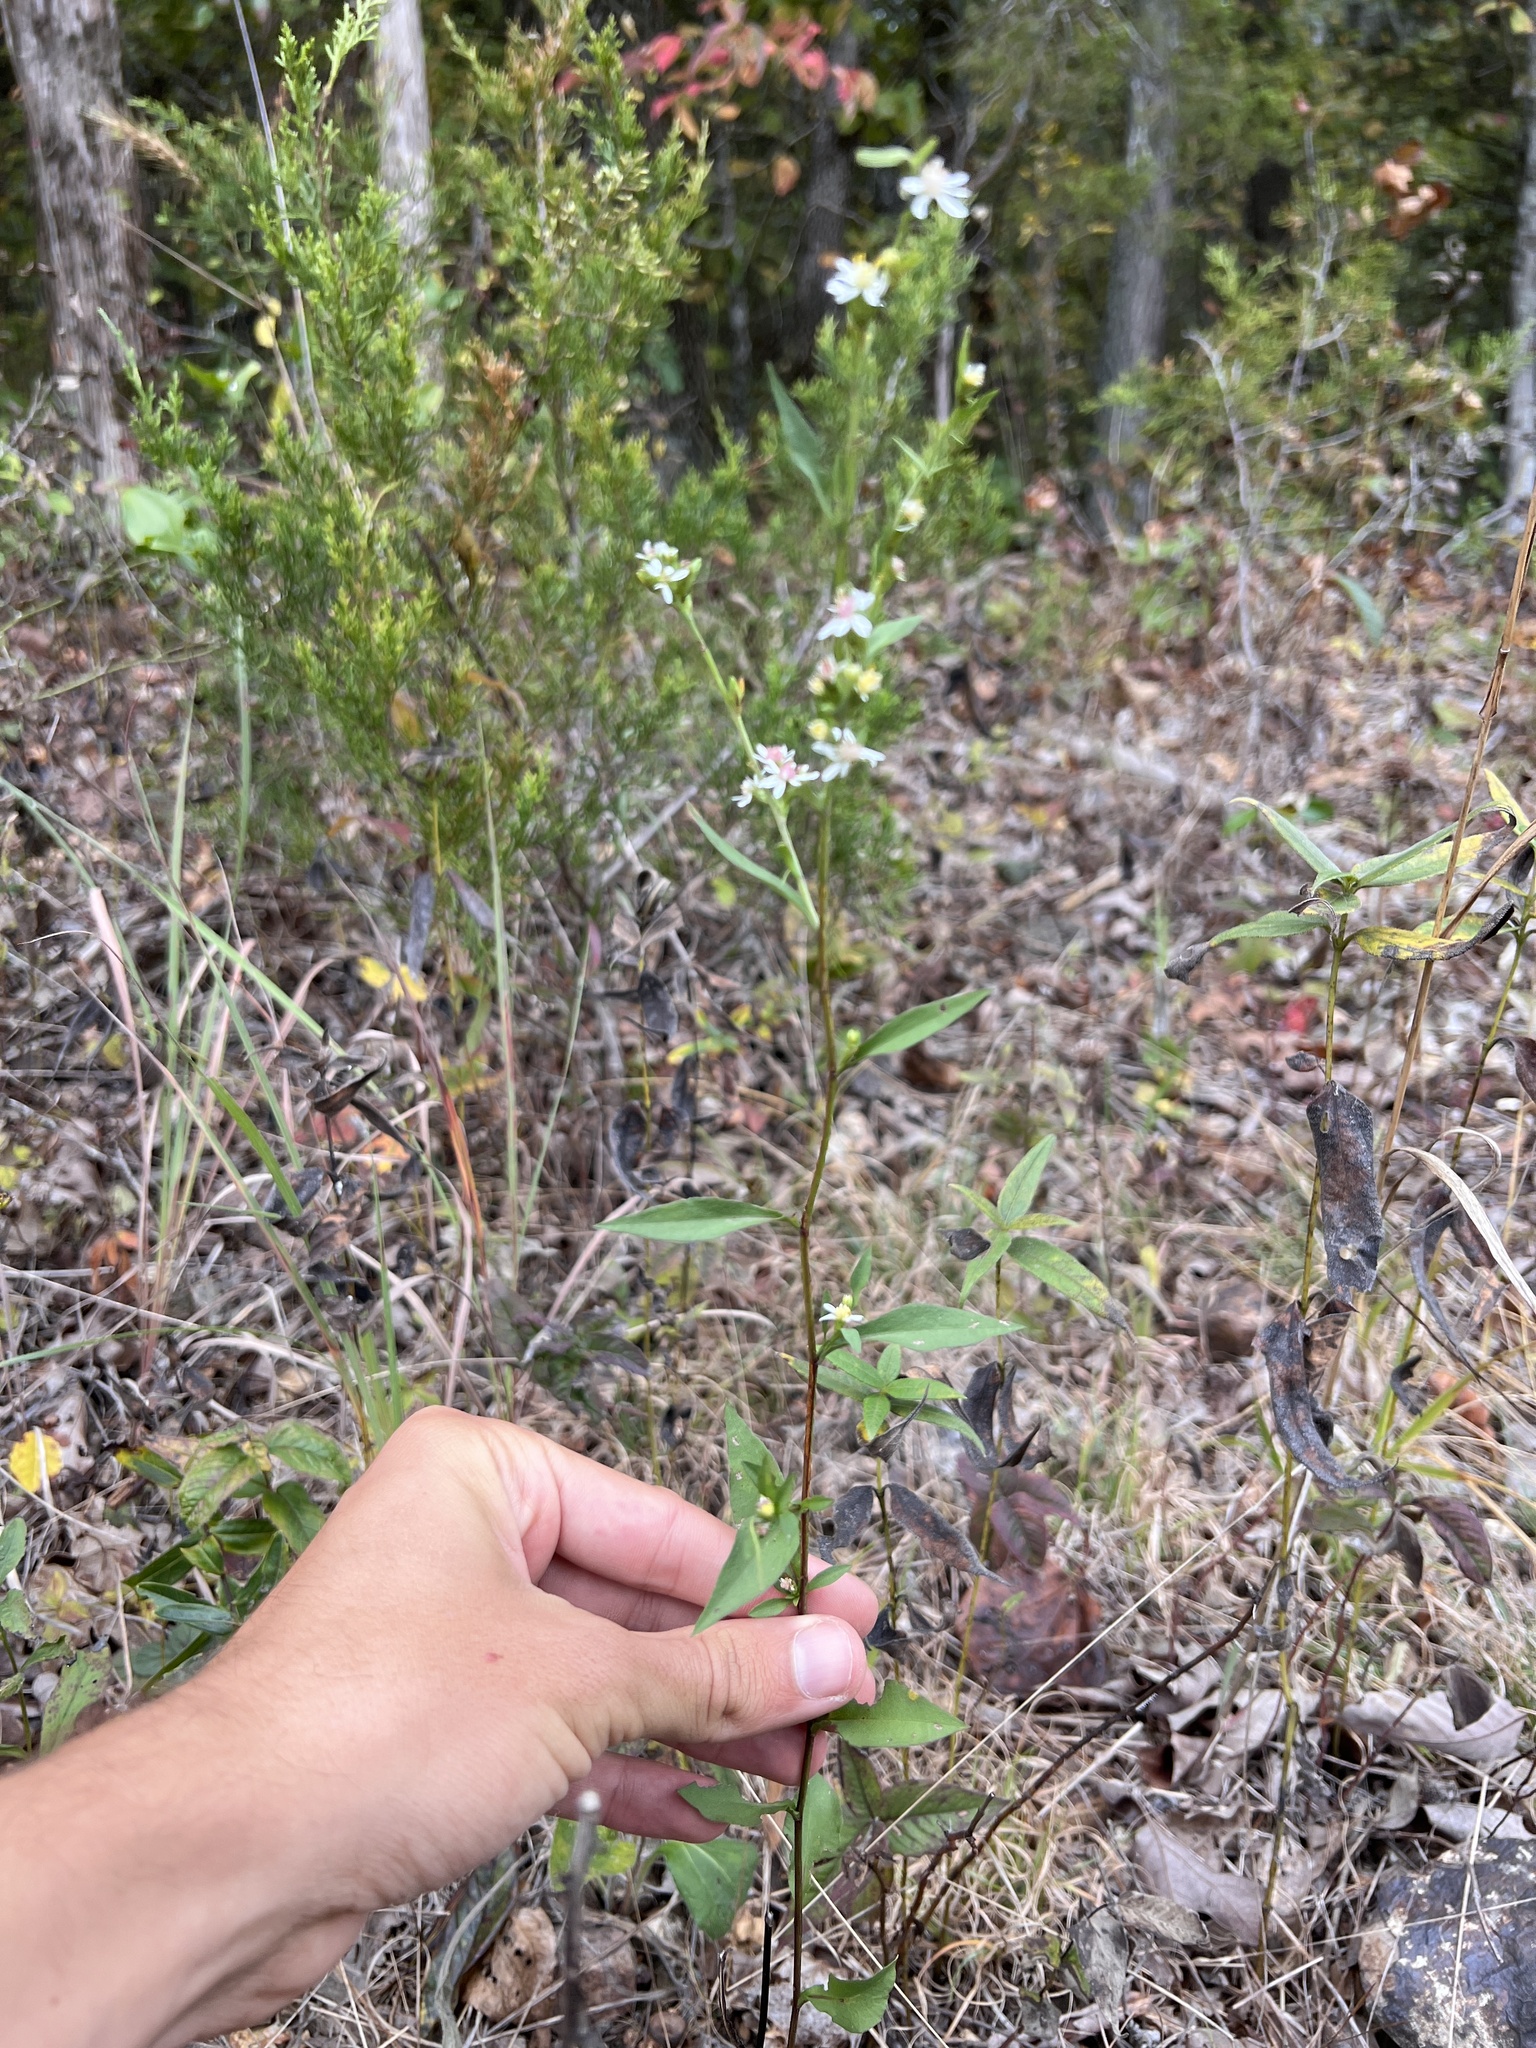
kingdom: Plantae
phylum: Tracheophyta
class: Magnoliopsida
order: Asterales
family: Asteraceae
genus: Symphyotrichum
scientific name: Symphyotrichum urophyllum
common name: Arrow-leaved aster
